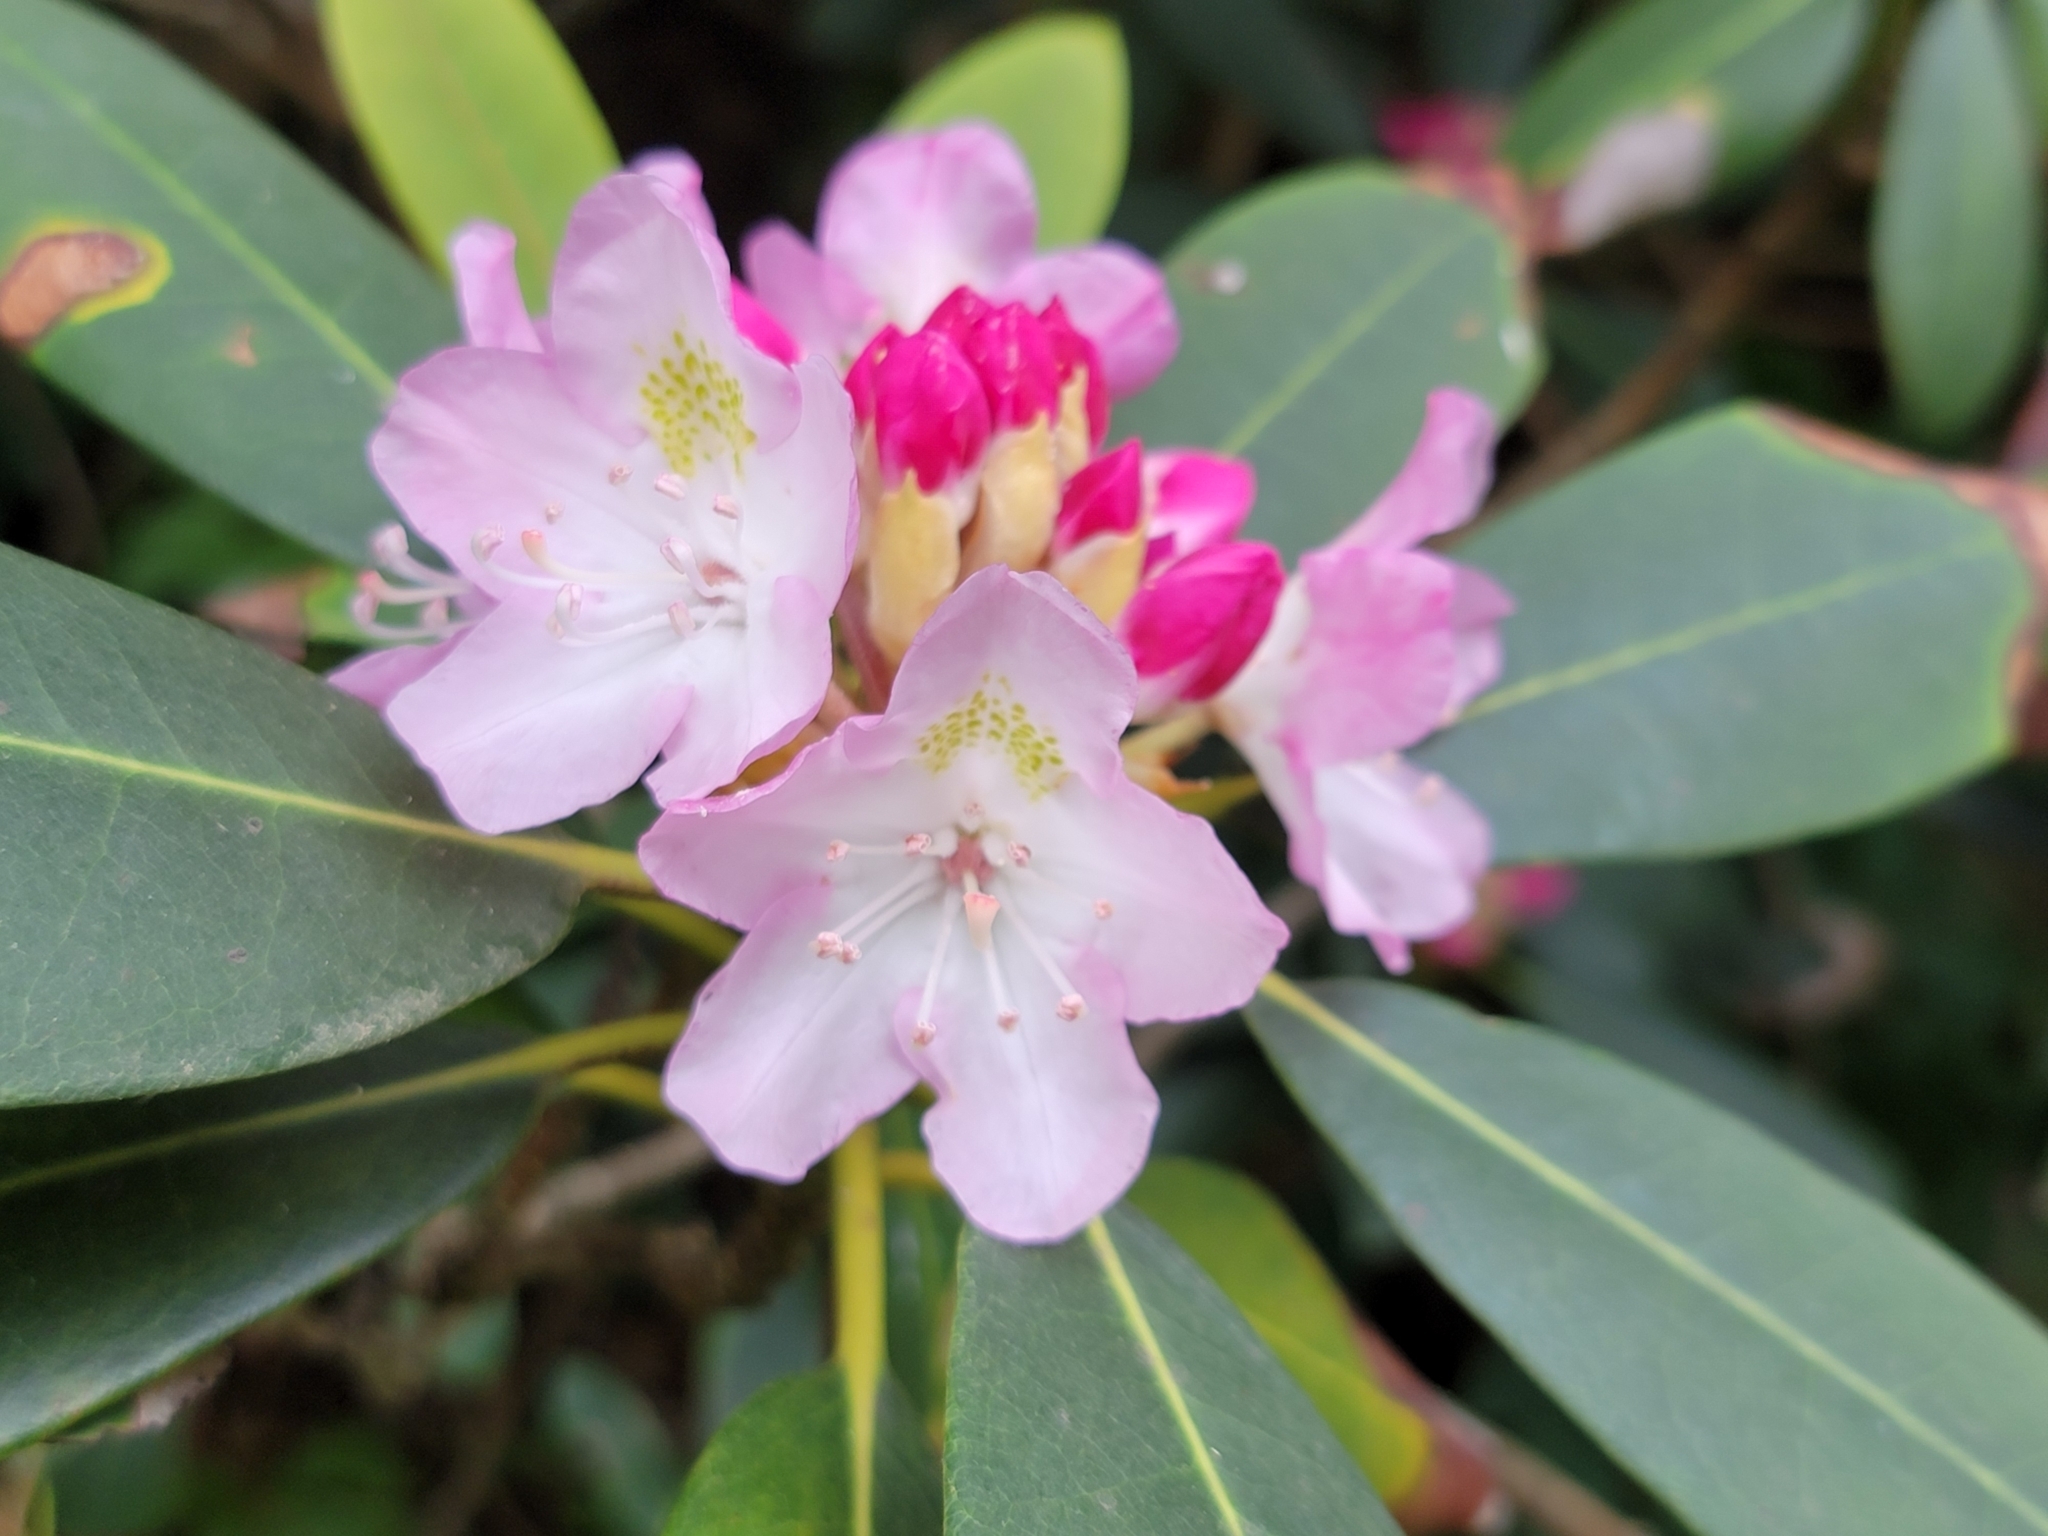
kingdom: Plantae
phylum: Tracheophyta
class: Magnoliopsida
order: Ericales
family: Ericaceae
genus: Rhododendron
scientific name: Rhododendron maximum
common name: Great rhododendron
